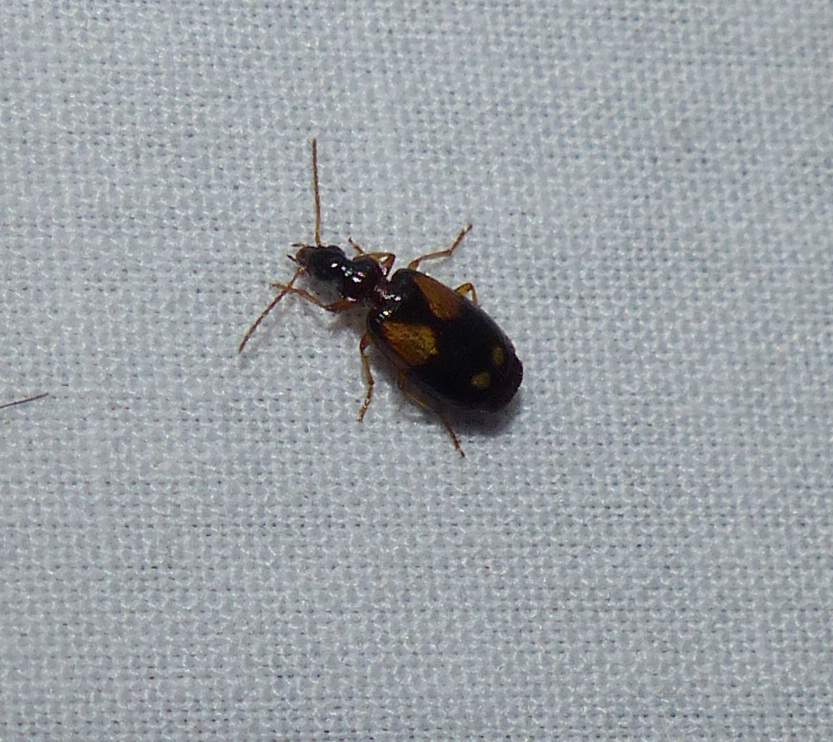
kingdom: Animalia
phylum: Arthropoda
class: Insecta
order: Coleoptera
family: Carabidae
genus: Lebia
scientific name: Lebia ornata
